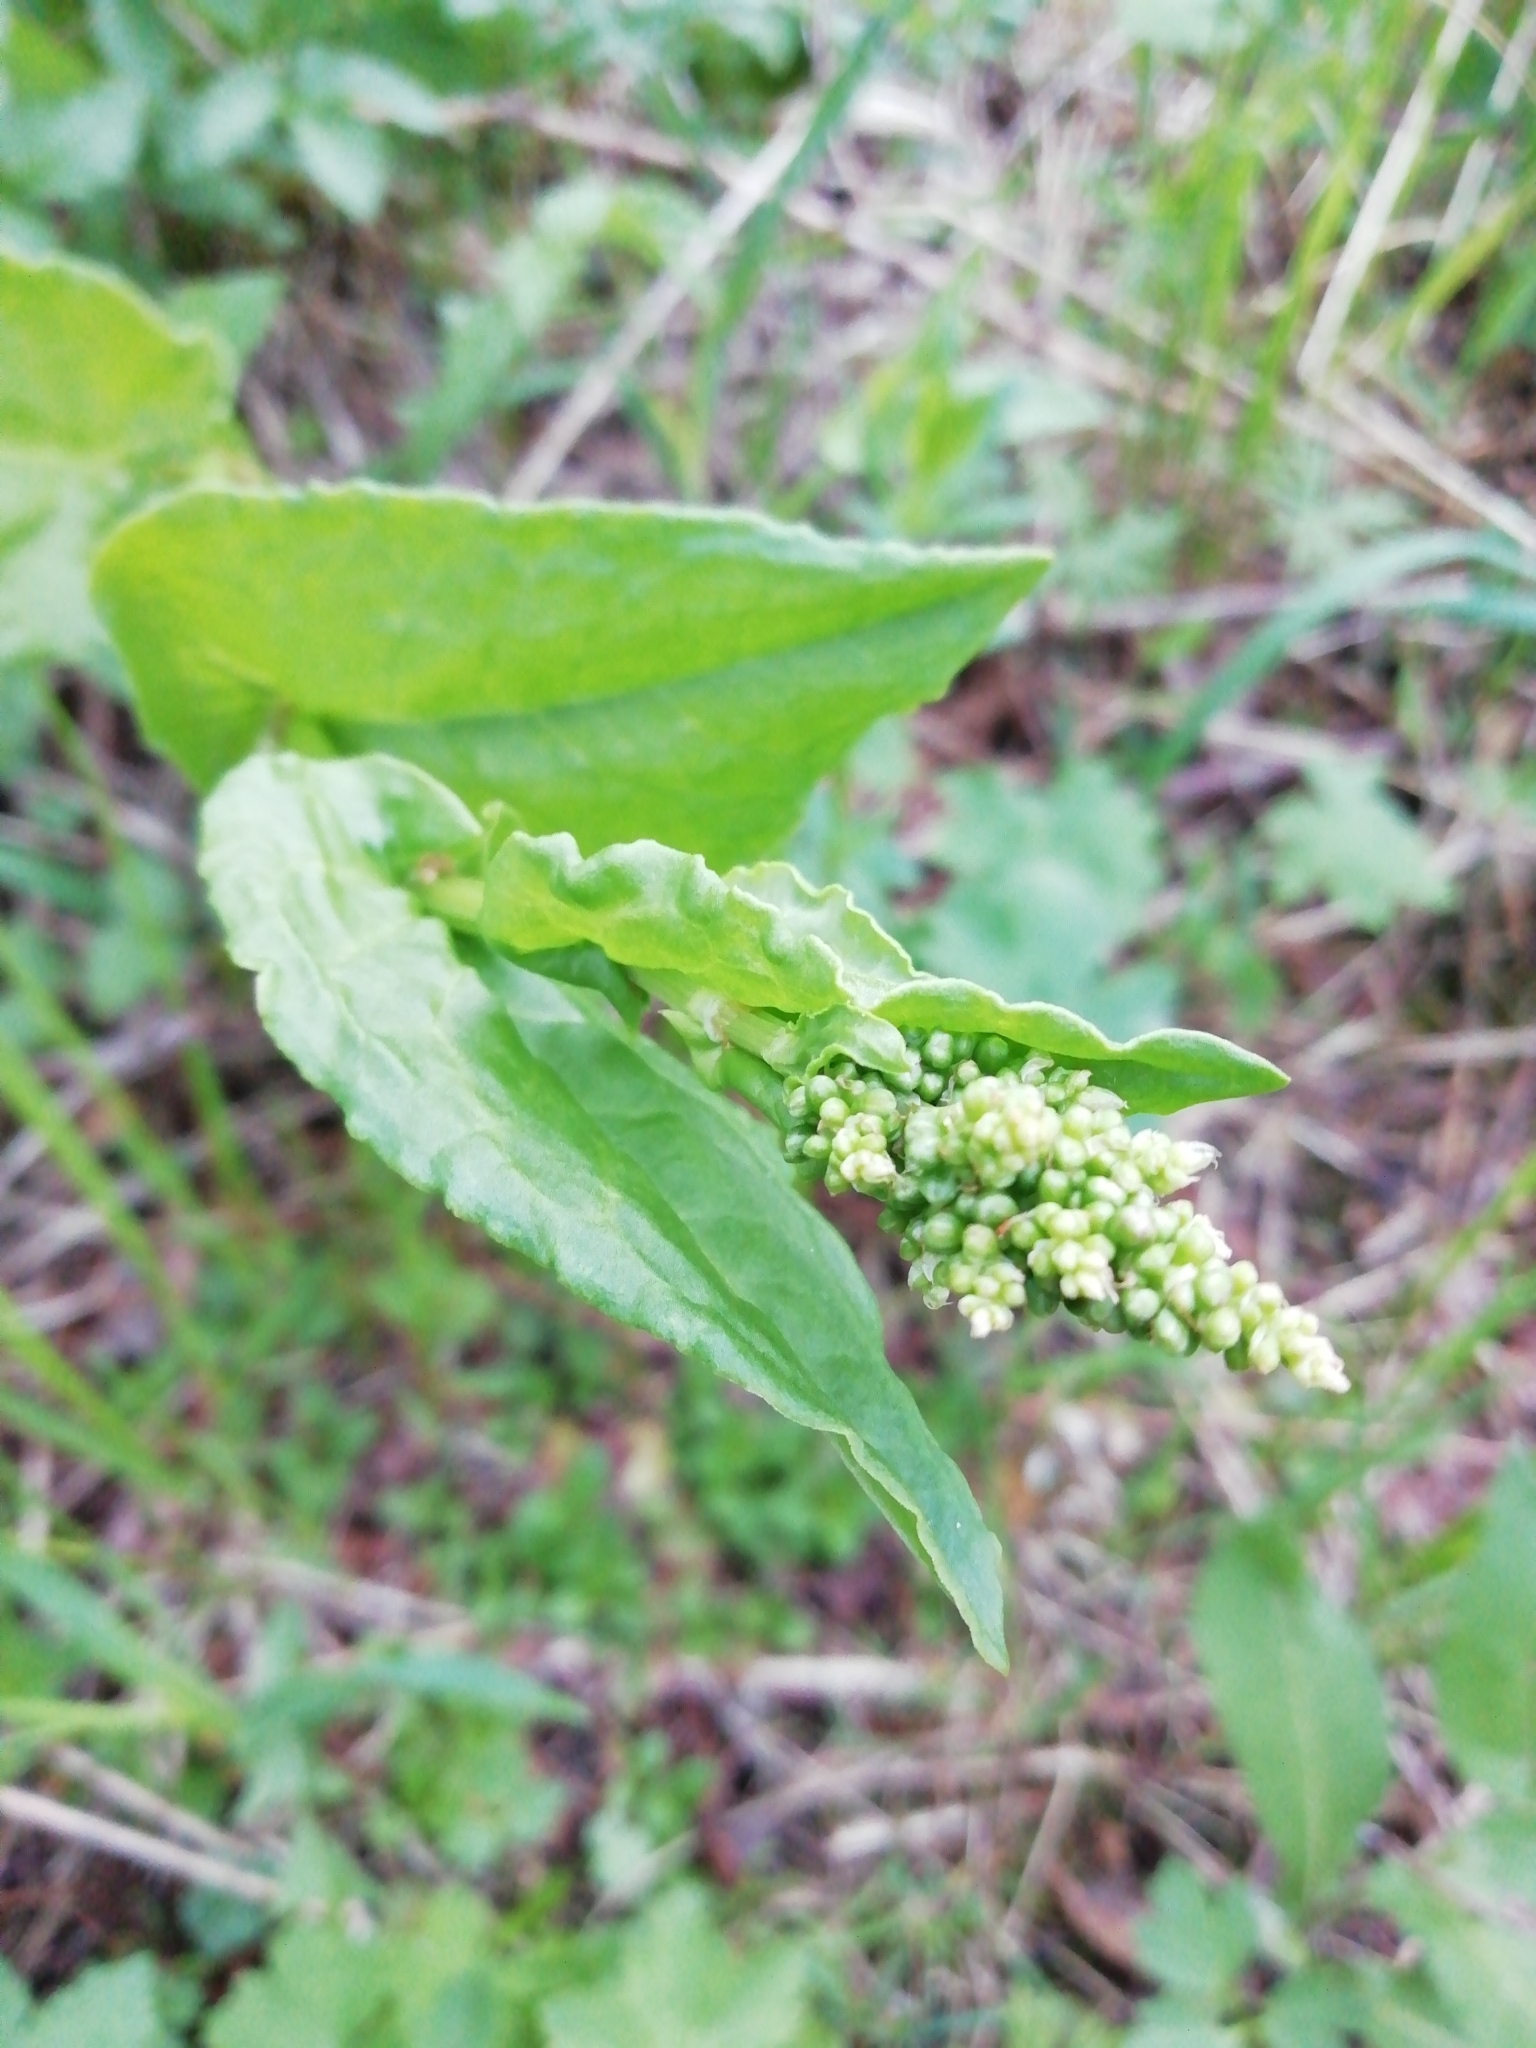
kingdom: Plantae
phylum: Tracheophyta
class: Magnoliopsida
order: Caryophyllales
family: Polygonaceae
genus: Koenigia
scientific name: Koenigia alpina
